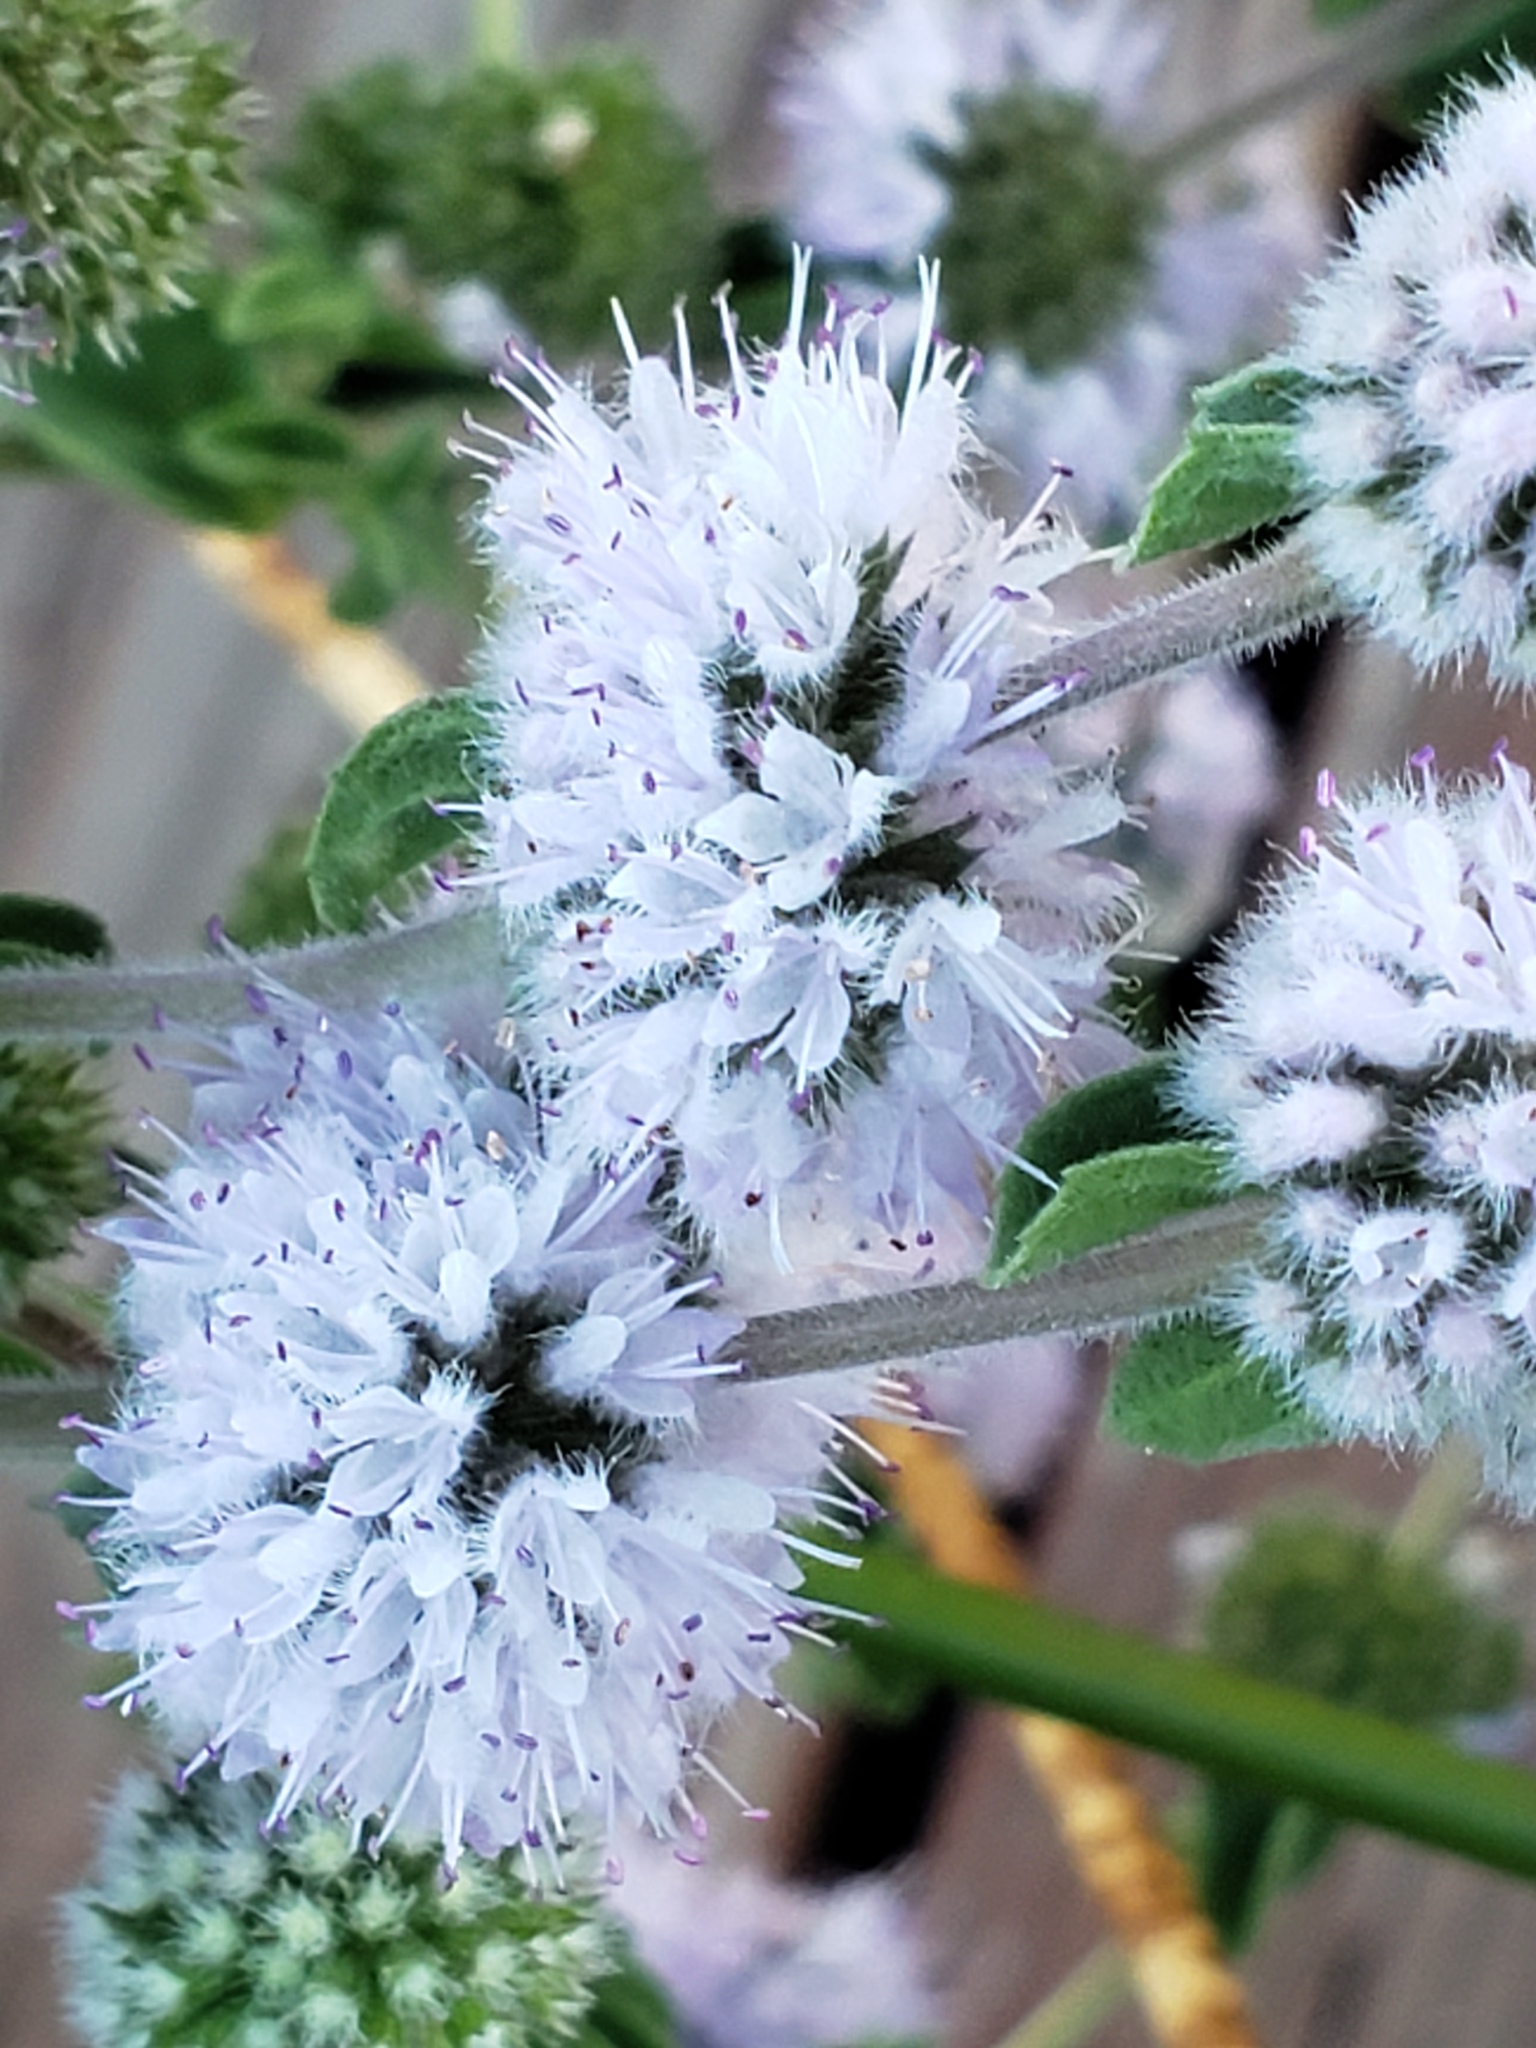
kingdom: Plantae
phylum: Tracheophyta
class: Magnoliopsida
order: Lamiales
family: Lamiaceae
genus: Mentha
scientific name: Mentha pulegium
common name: Pennyroyal
